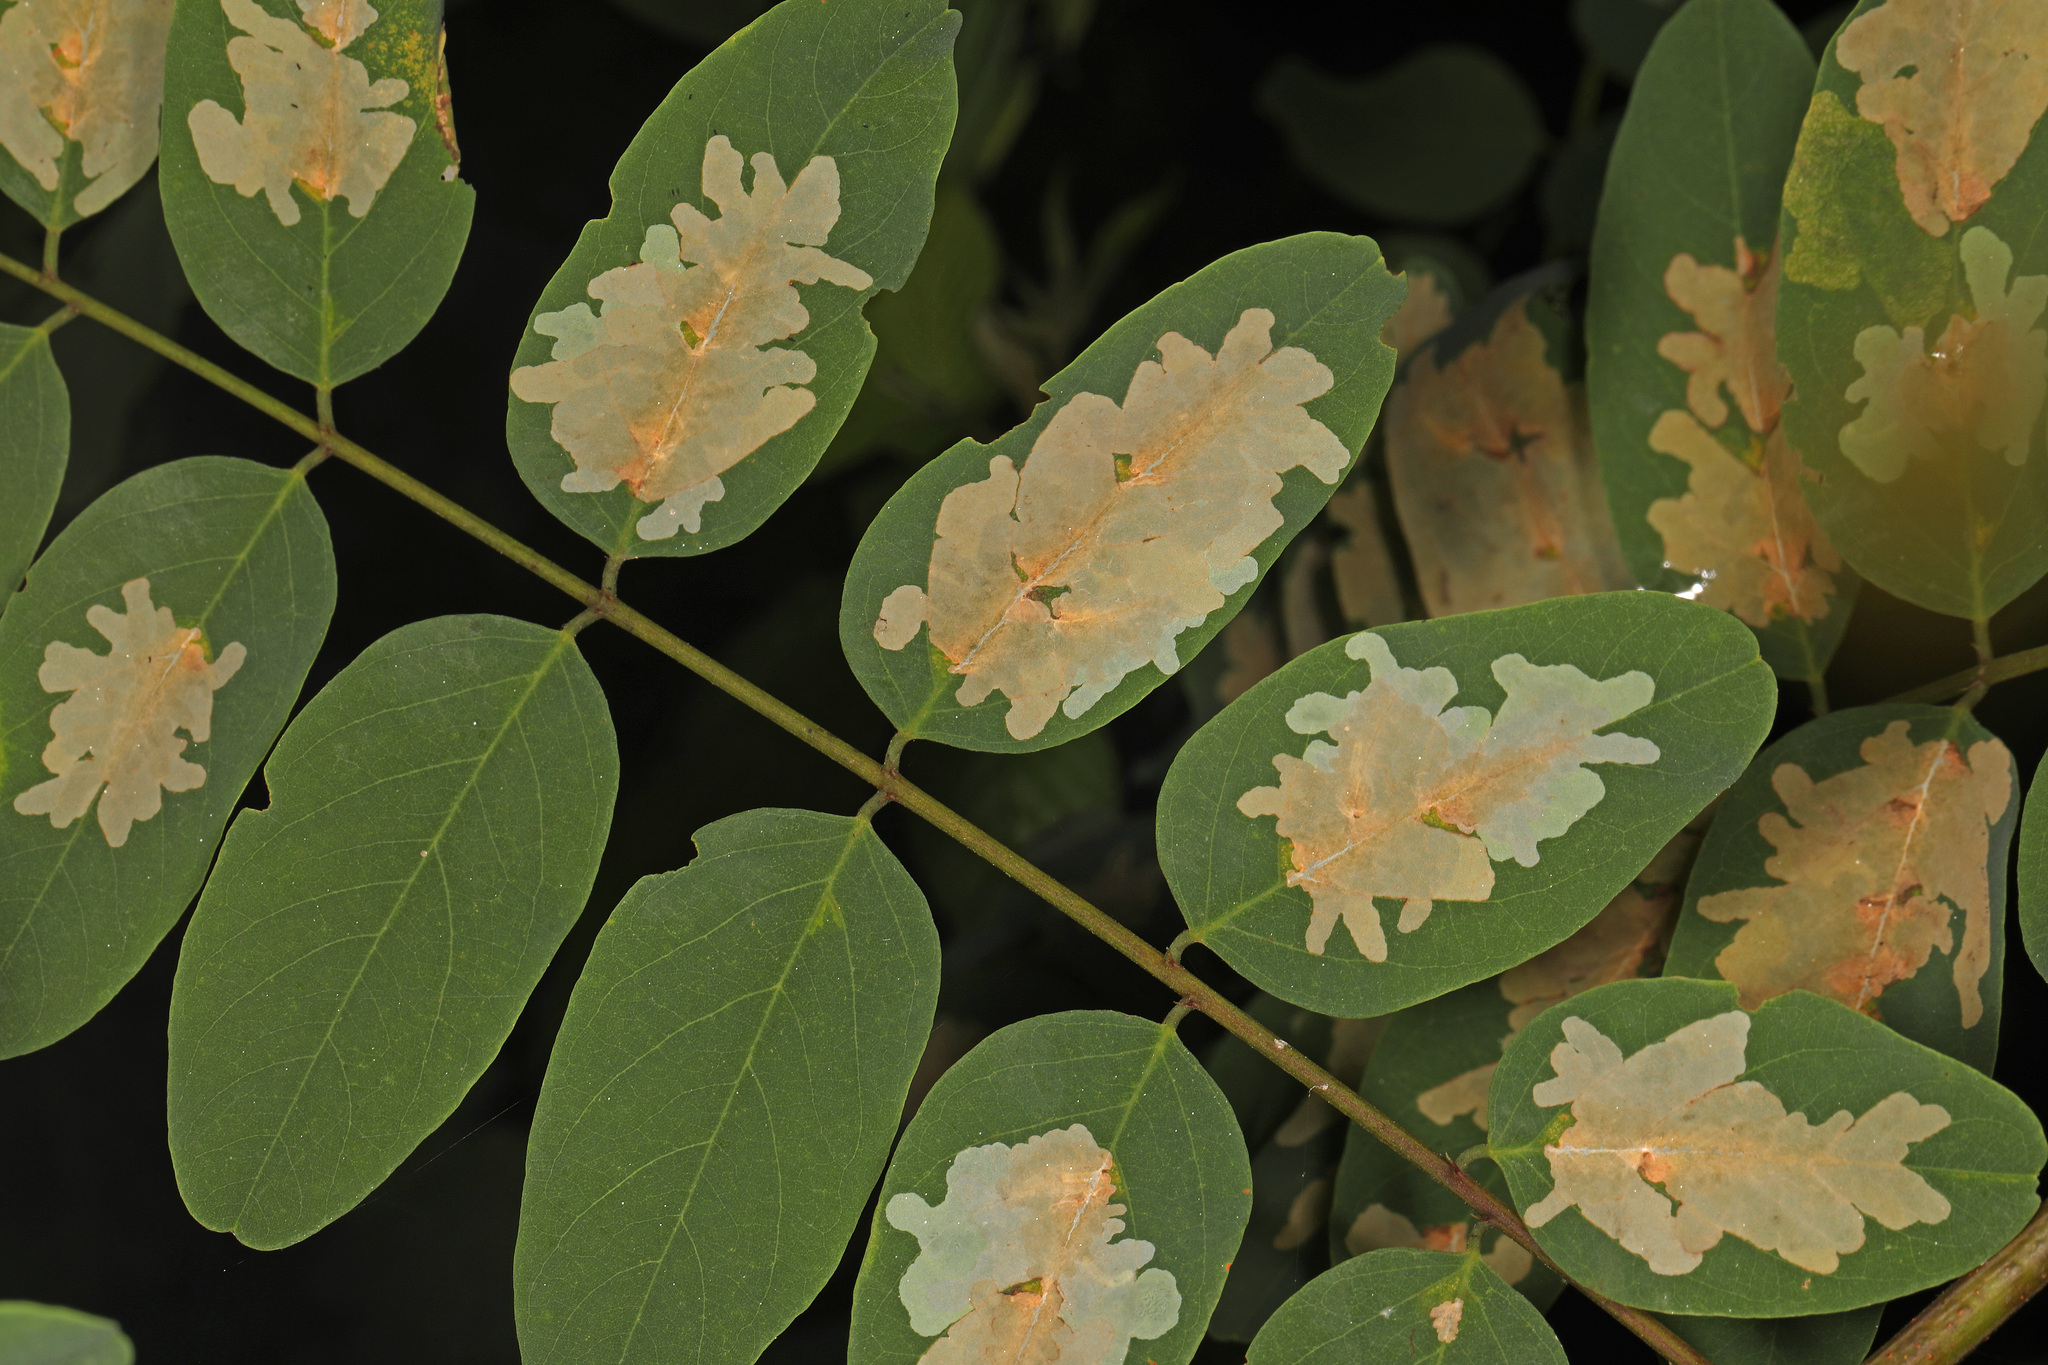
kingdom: Animalia
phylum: Arthropoda
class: Insecta
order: Lepidoptera
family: Gracillariidae
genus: Parectopa
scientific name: Parectopa robiniella
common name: Locust digitate leafminer
